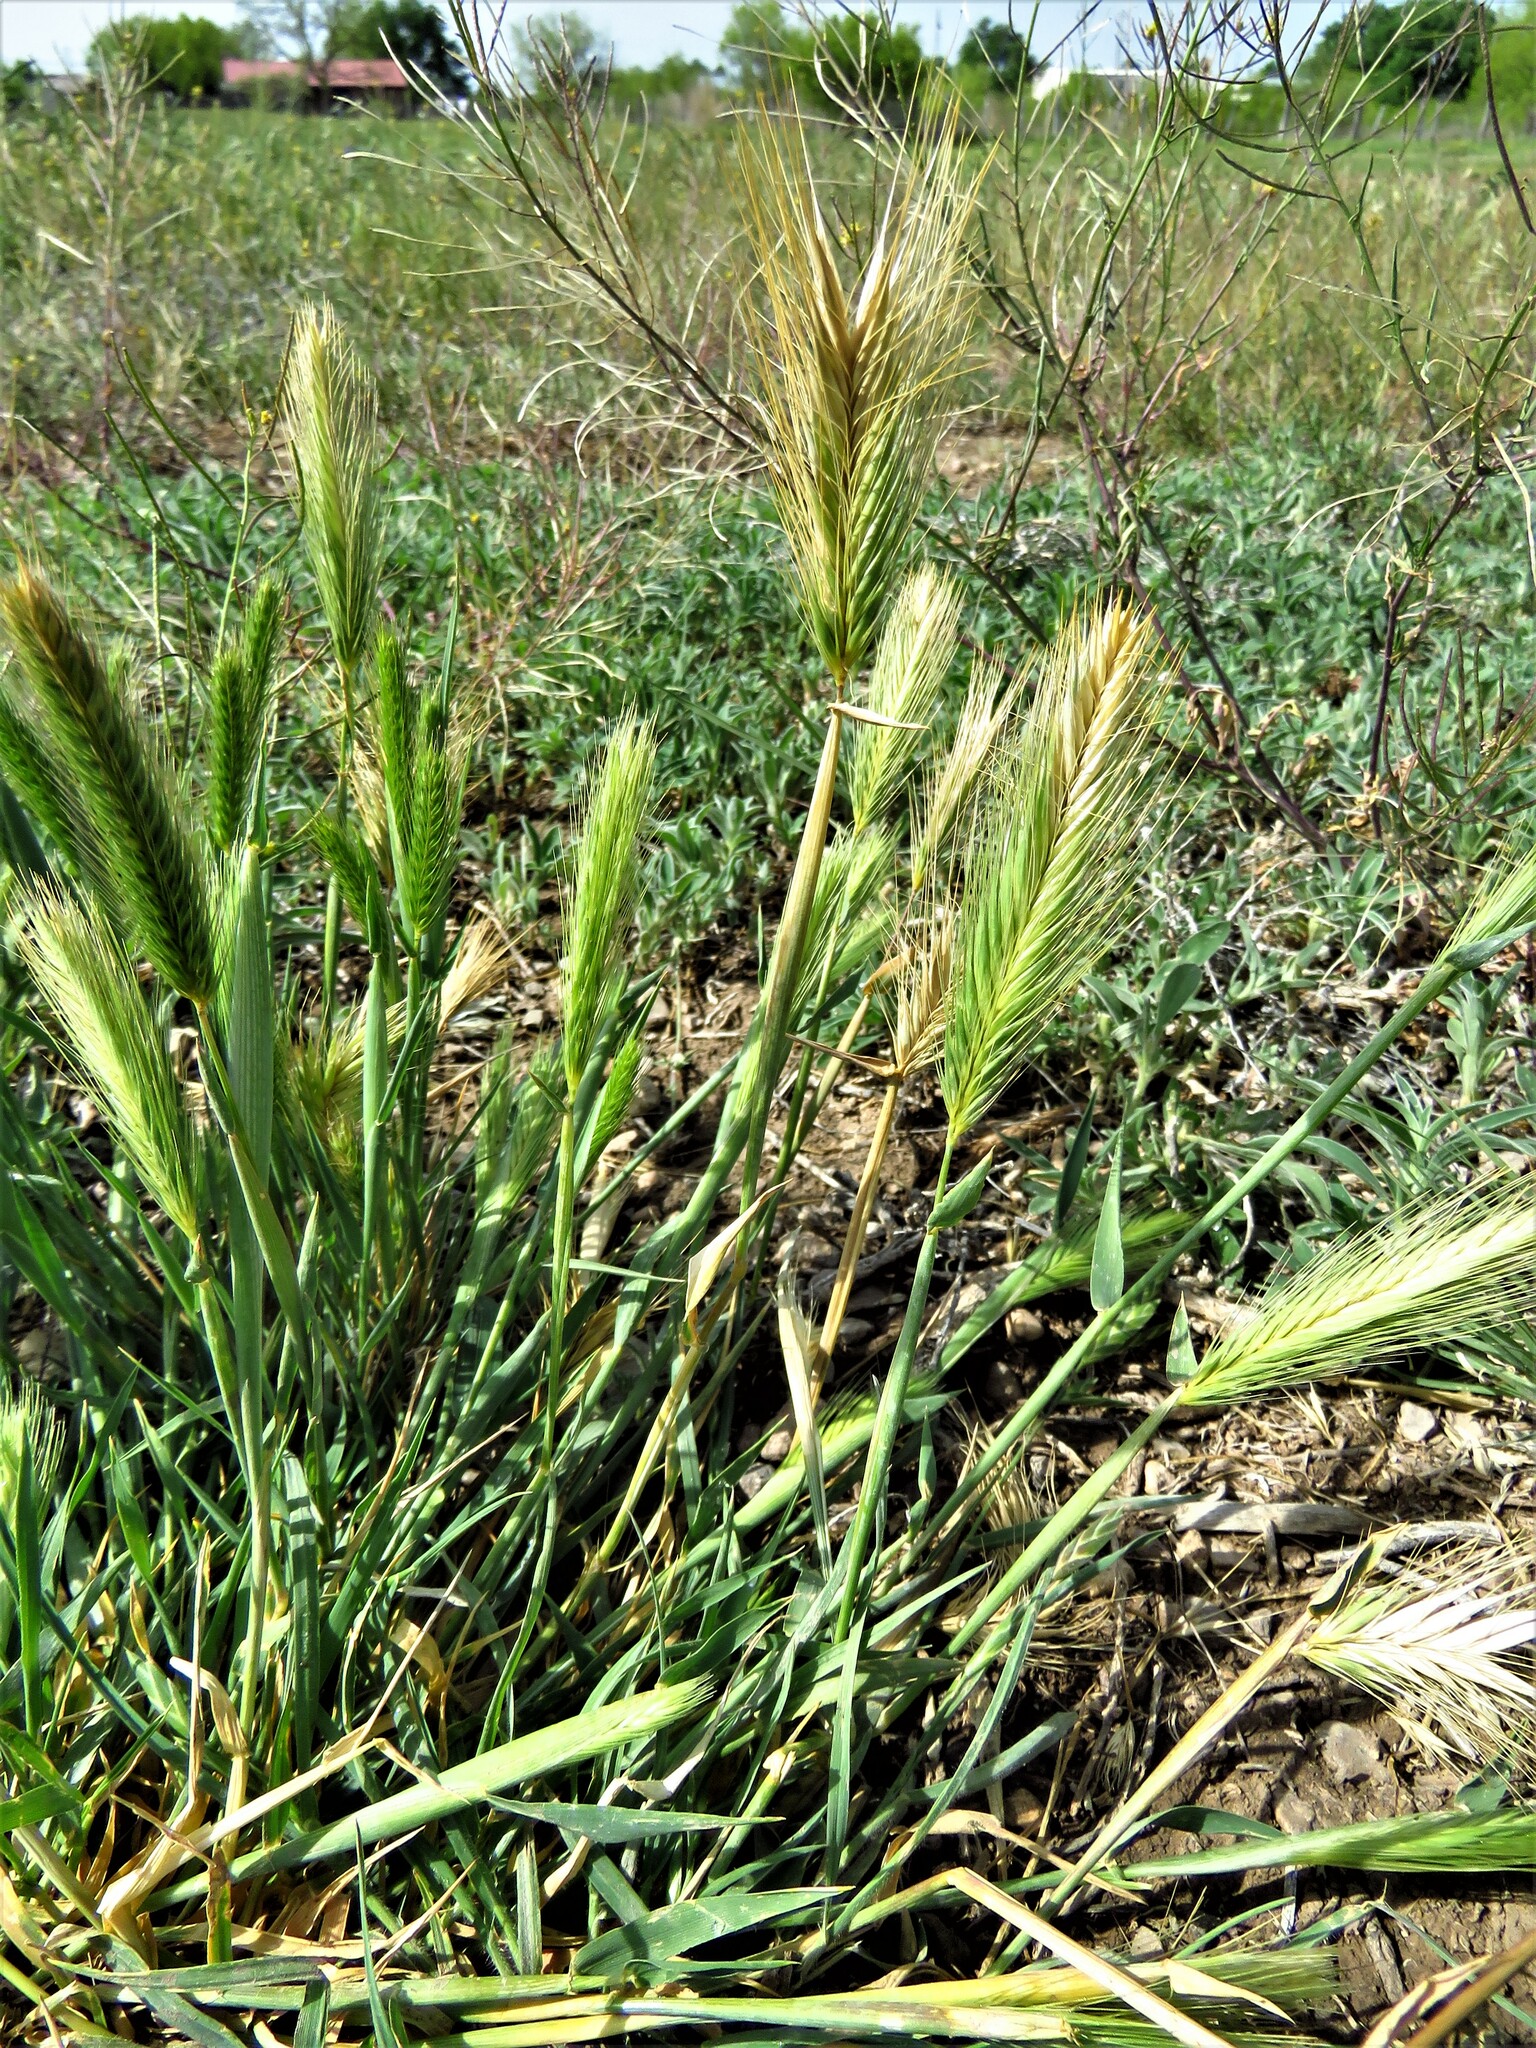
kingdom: Plantae
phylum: Tracheophyta
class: Liliopsida
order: Poales
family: Poaceae
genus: Hordeum
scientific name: Hordeum murinum
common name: Wall barley
